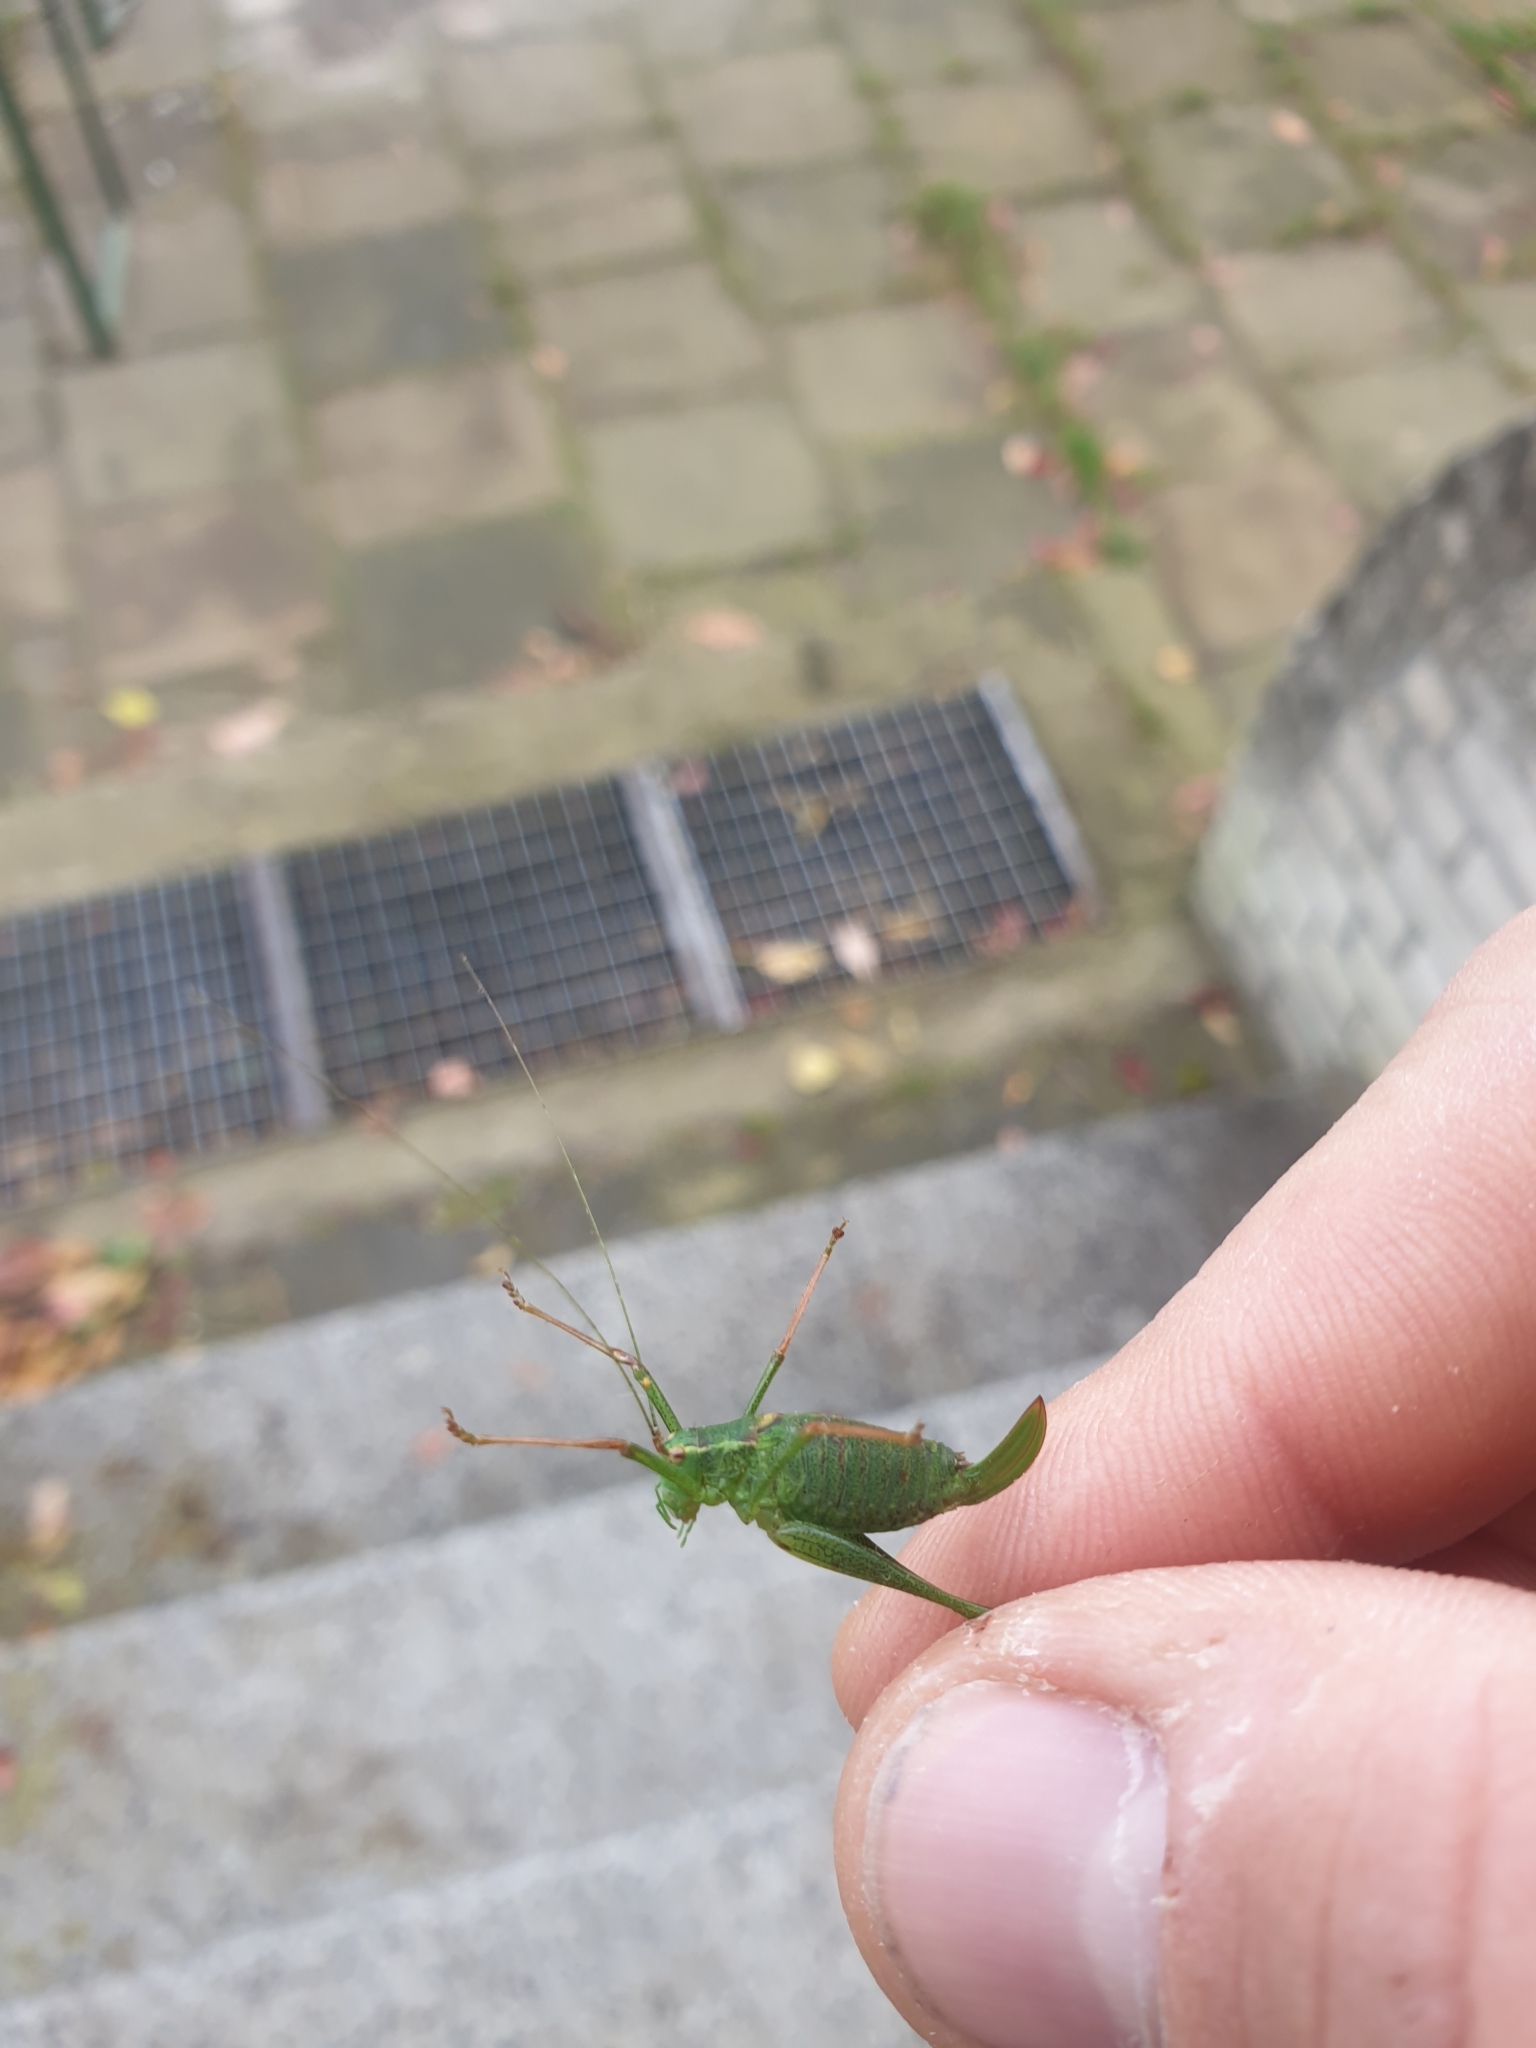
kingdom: Animalia
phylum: Arthropoda
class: Insecta
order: Orthoptera
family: Tettigoniidae
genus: Leptophyes
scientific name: Leptophyes punctatissima
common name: Speckled bush-cricket
